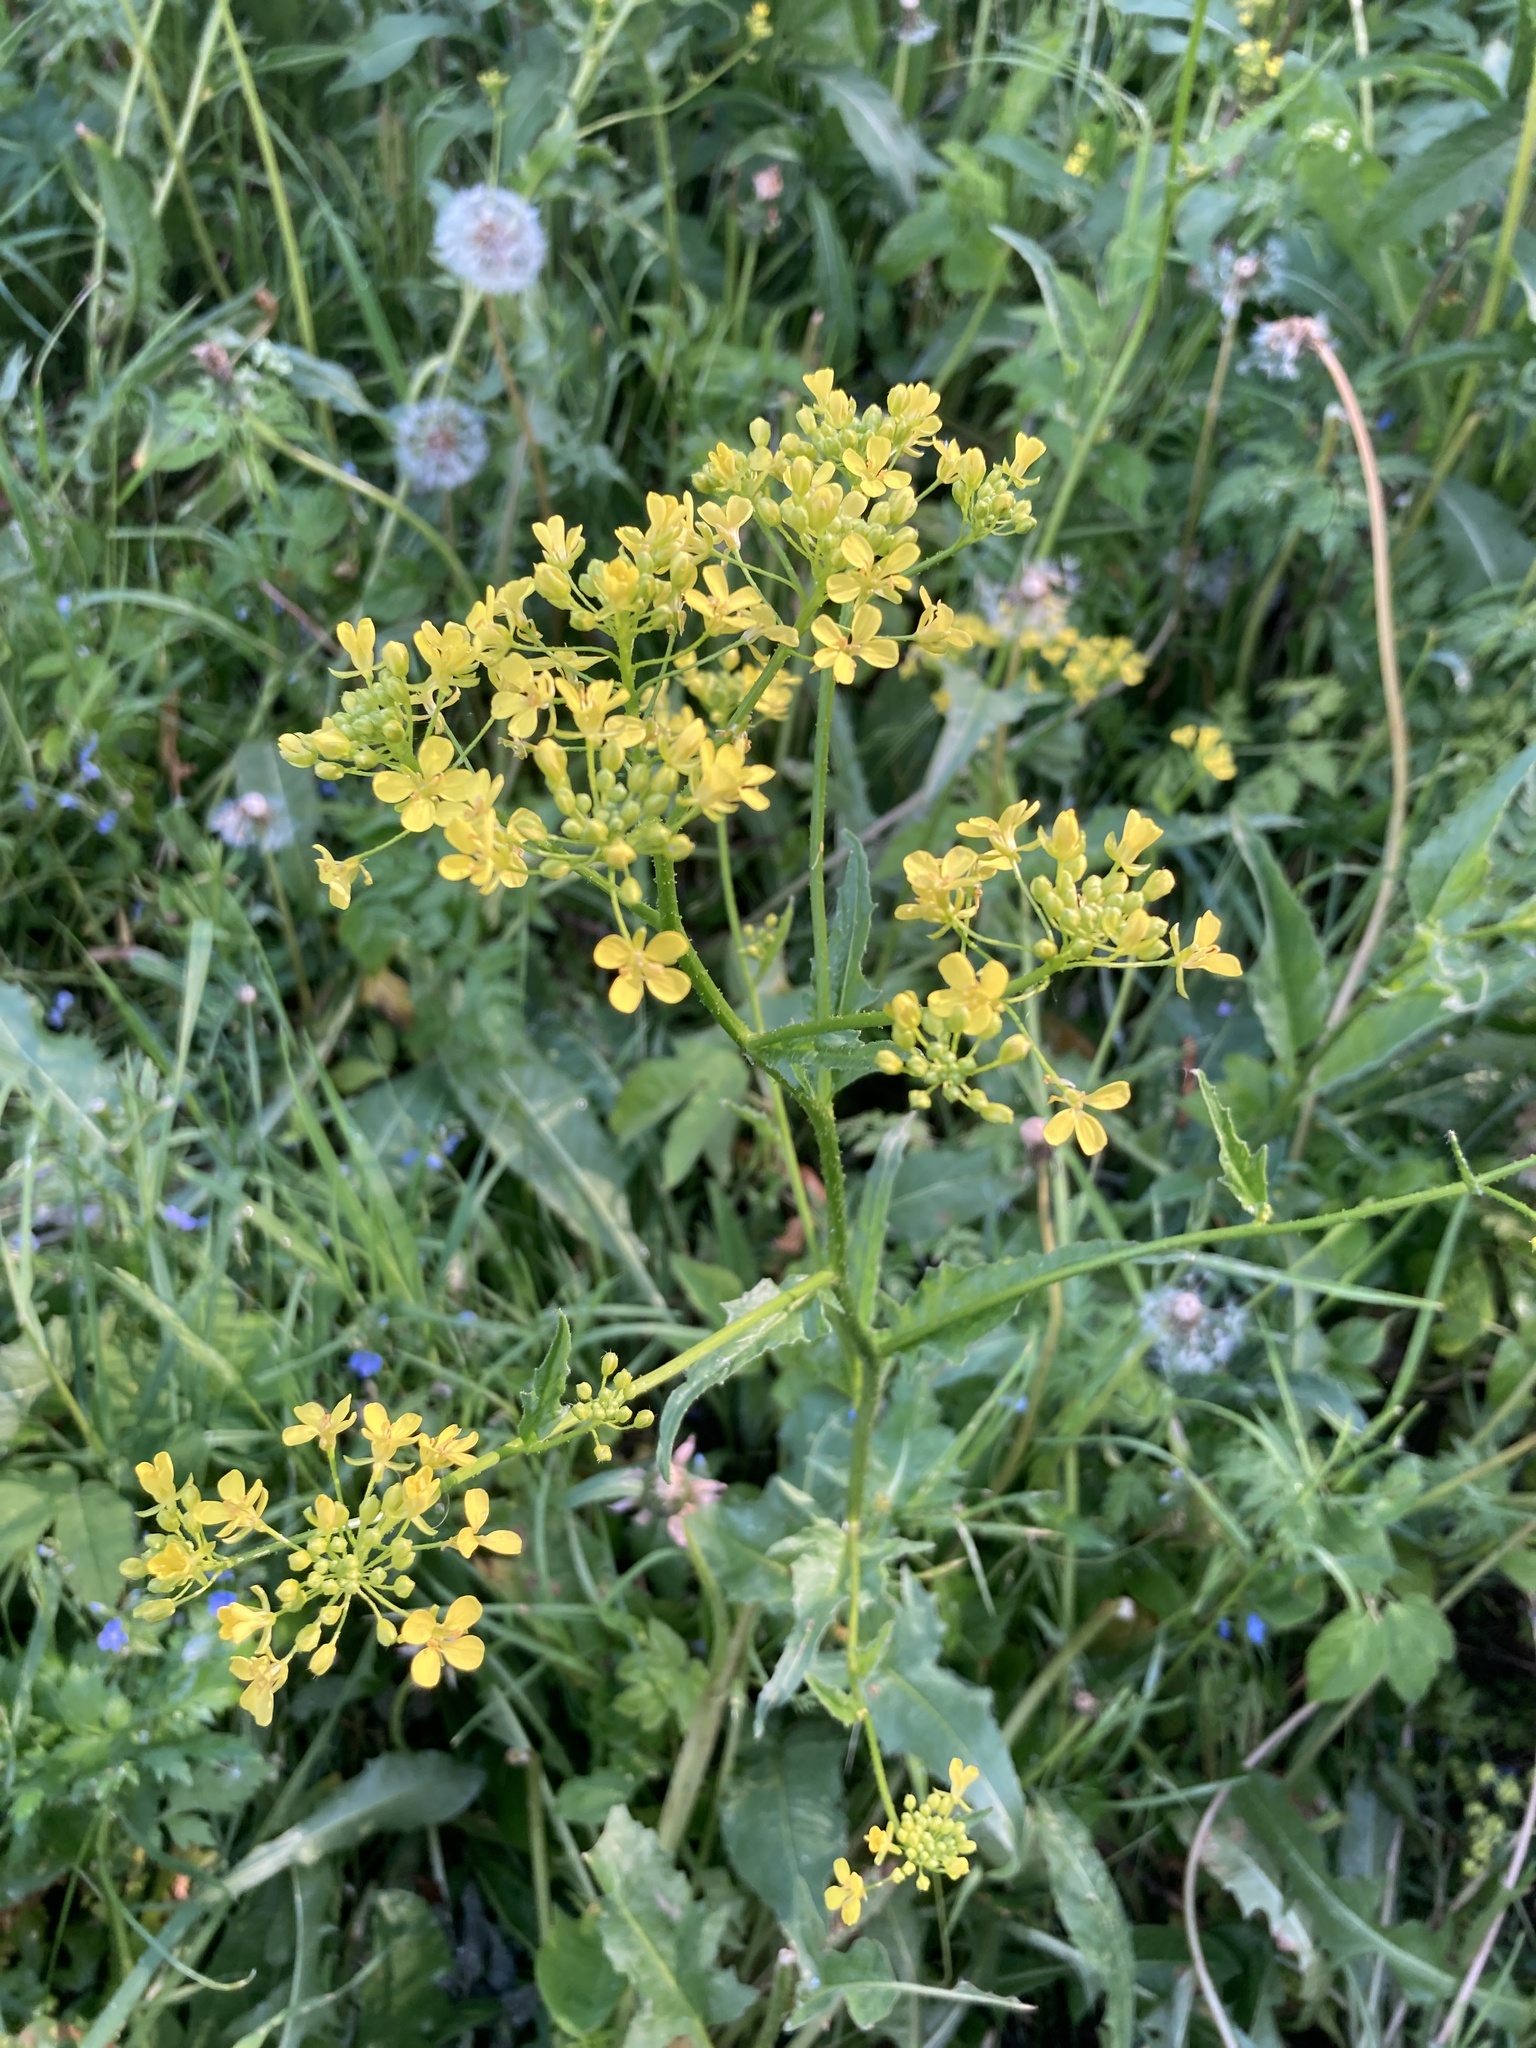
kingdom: Plantae
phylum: Tracheophyta
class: Magnoliopsida
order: Brassicales
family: Brassicaceae
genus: Bunias
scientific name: Bunias orientalis
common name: Warty-cabbage
